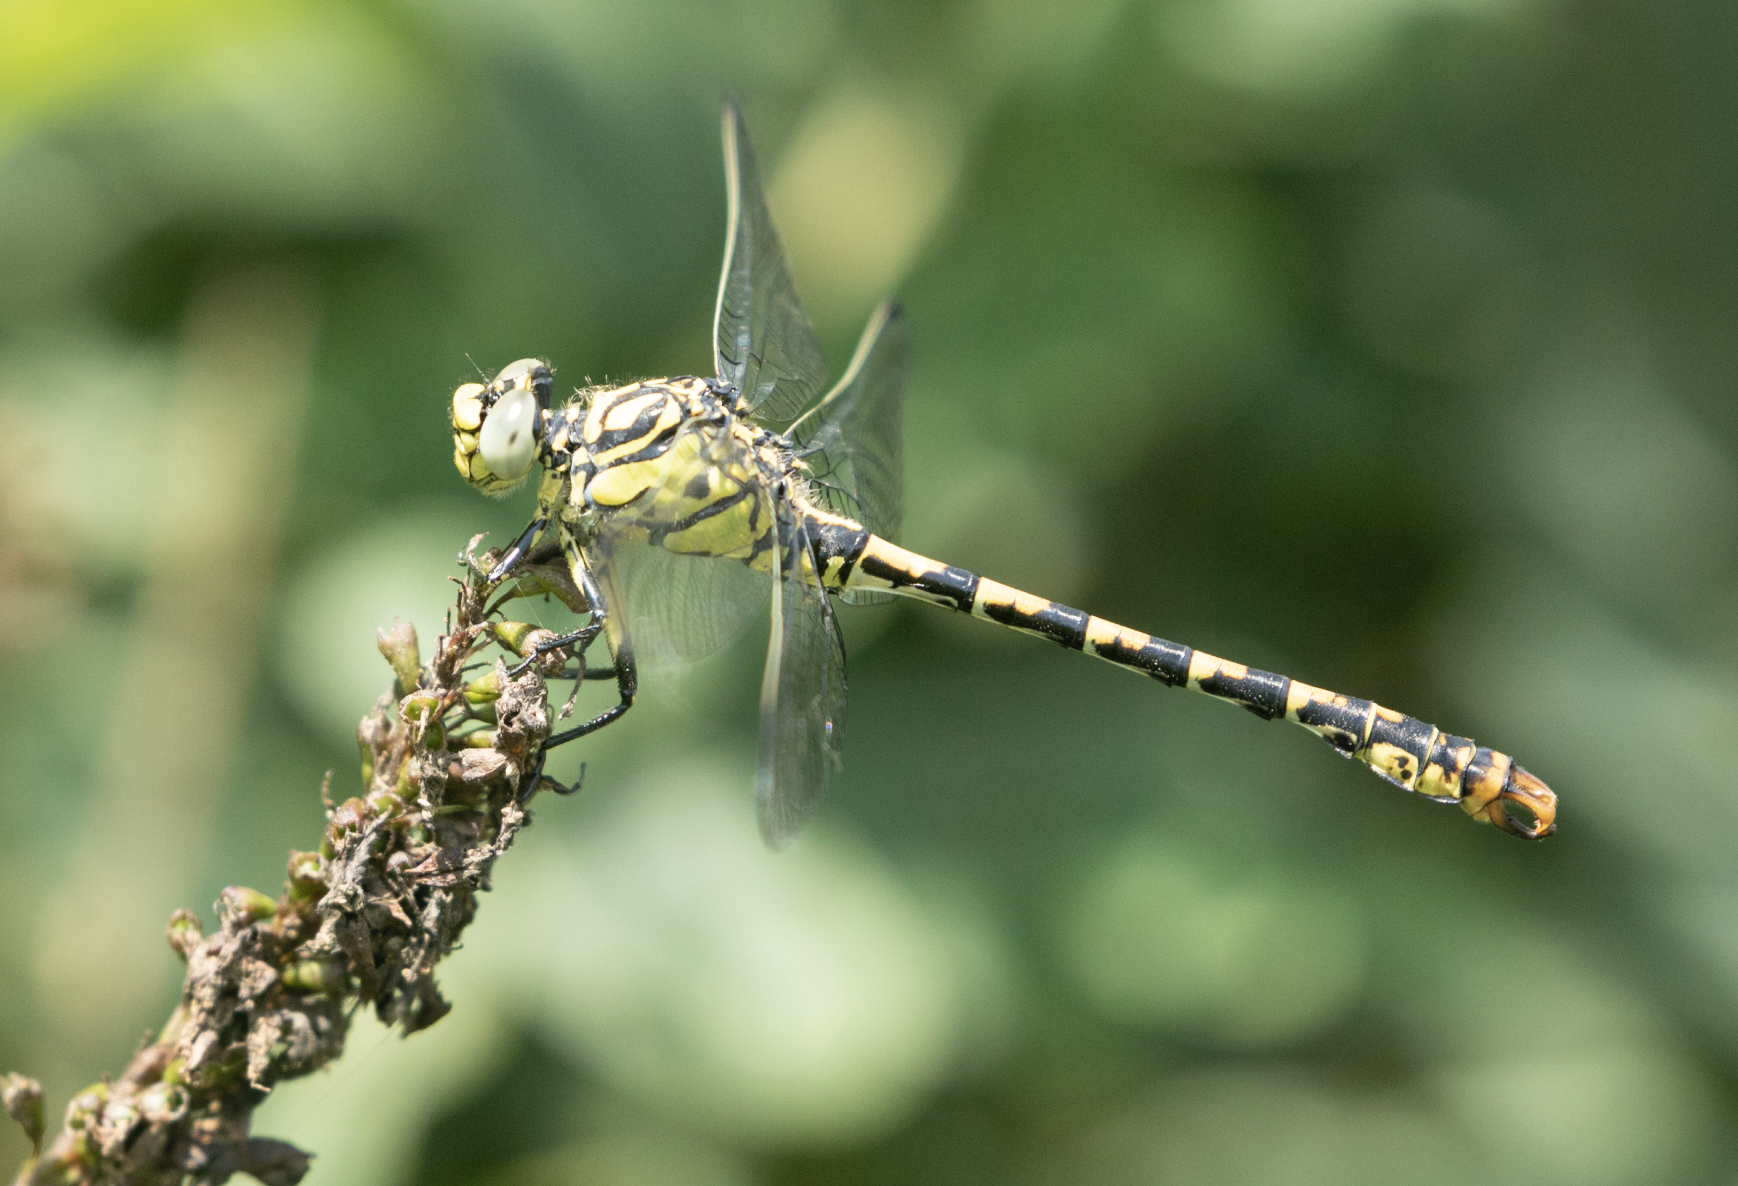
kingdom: Animalia
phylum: Arthropoda
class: Insecta
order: Odonata
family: Gomphidae
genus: Onychogomphus
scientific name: Onychogomphus forcipatus
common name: Small pincertail
